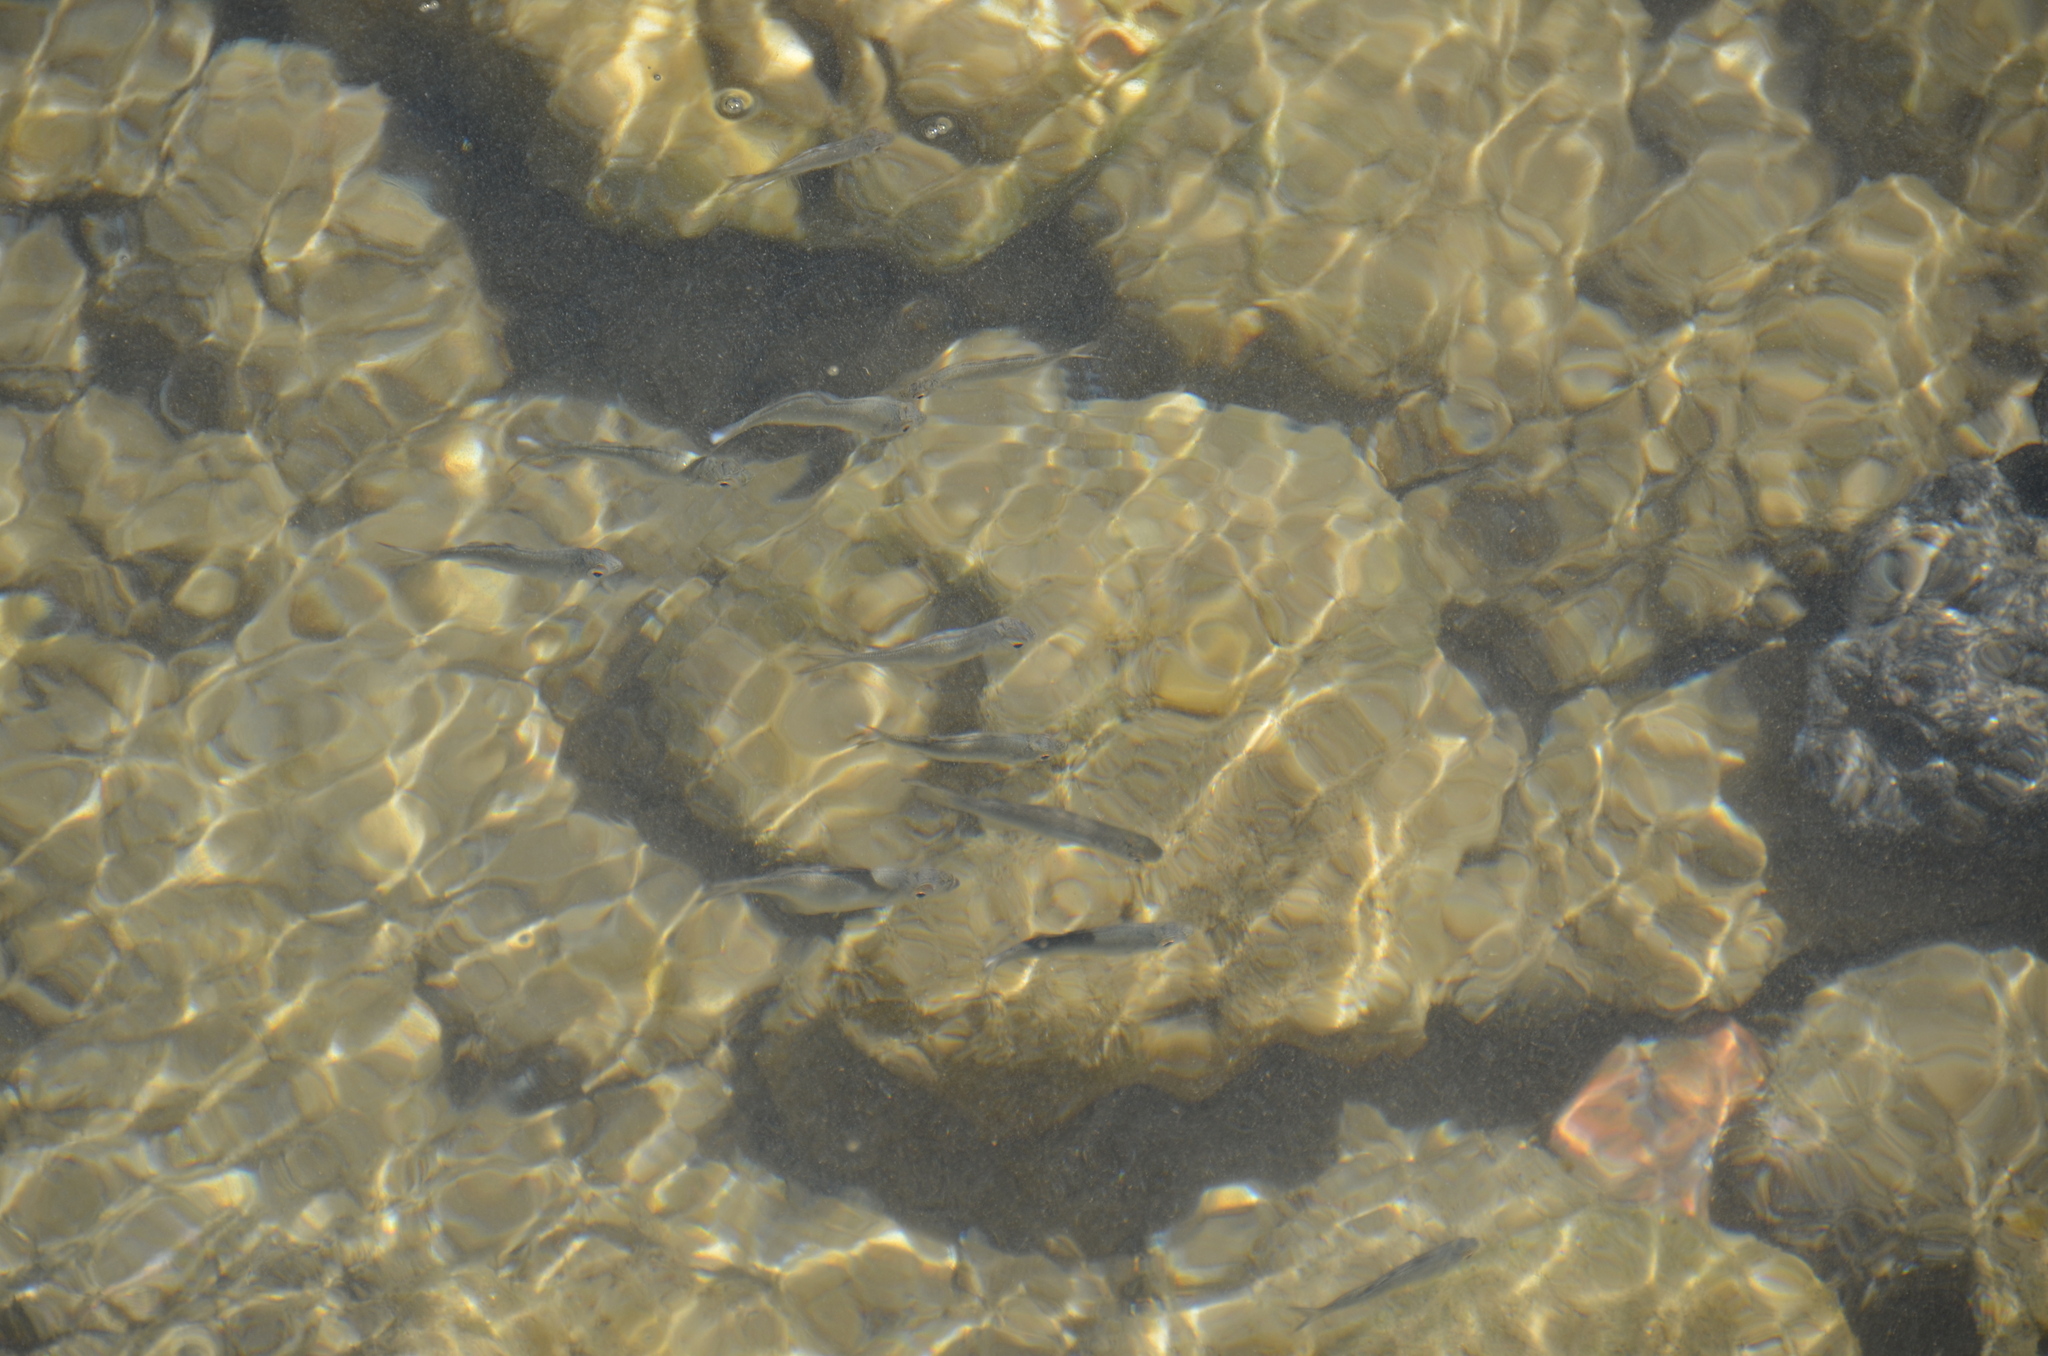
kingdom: Animalia
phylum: Chordata
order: Perciformes
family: Kuhliidae
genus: Kuhlia
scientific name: Kuhlia xenura
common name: Hawaiian flagtail
